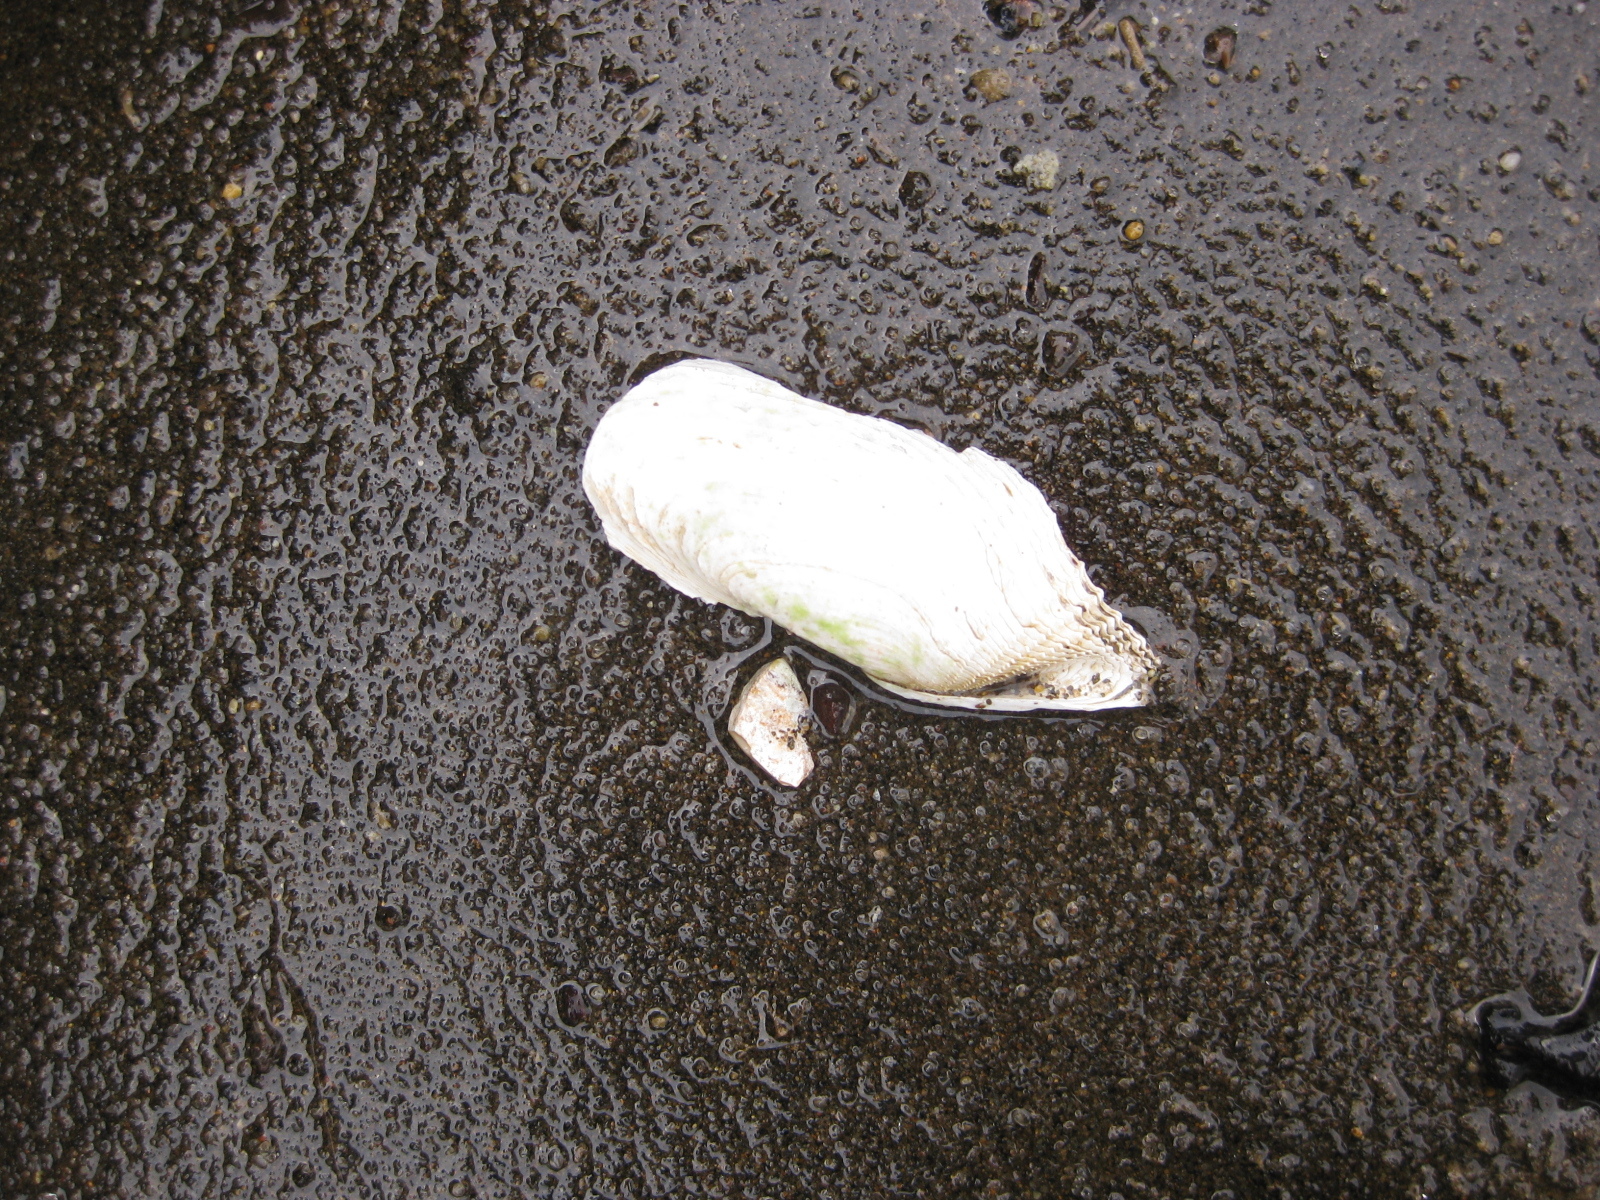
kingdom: Animalia
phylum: Mollusca
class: Bivalvia
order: Myida
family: Pholadidae
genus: Barnea
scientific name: Barnea similis
